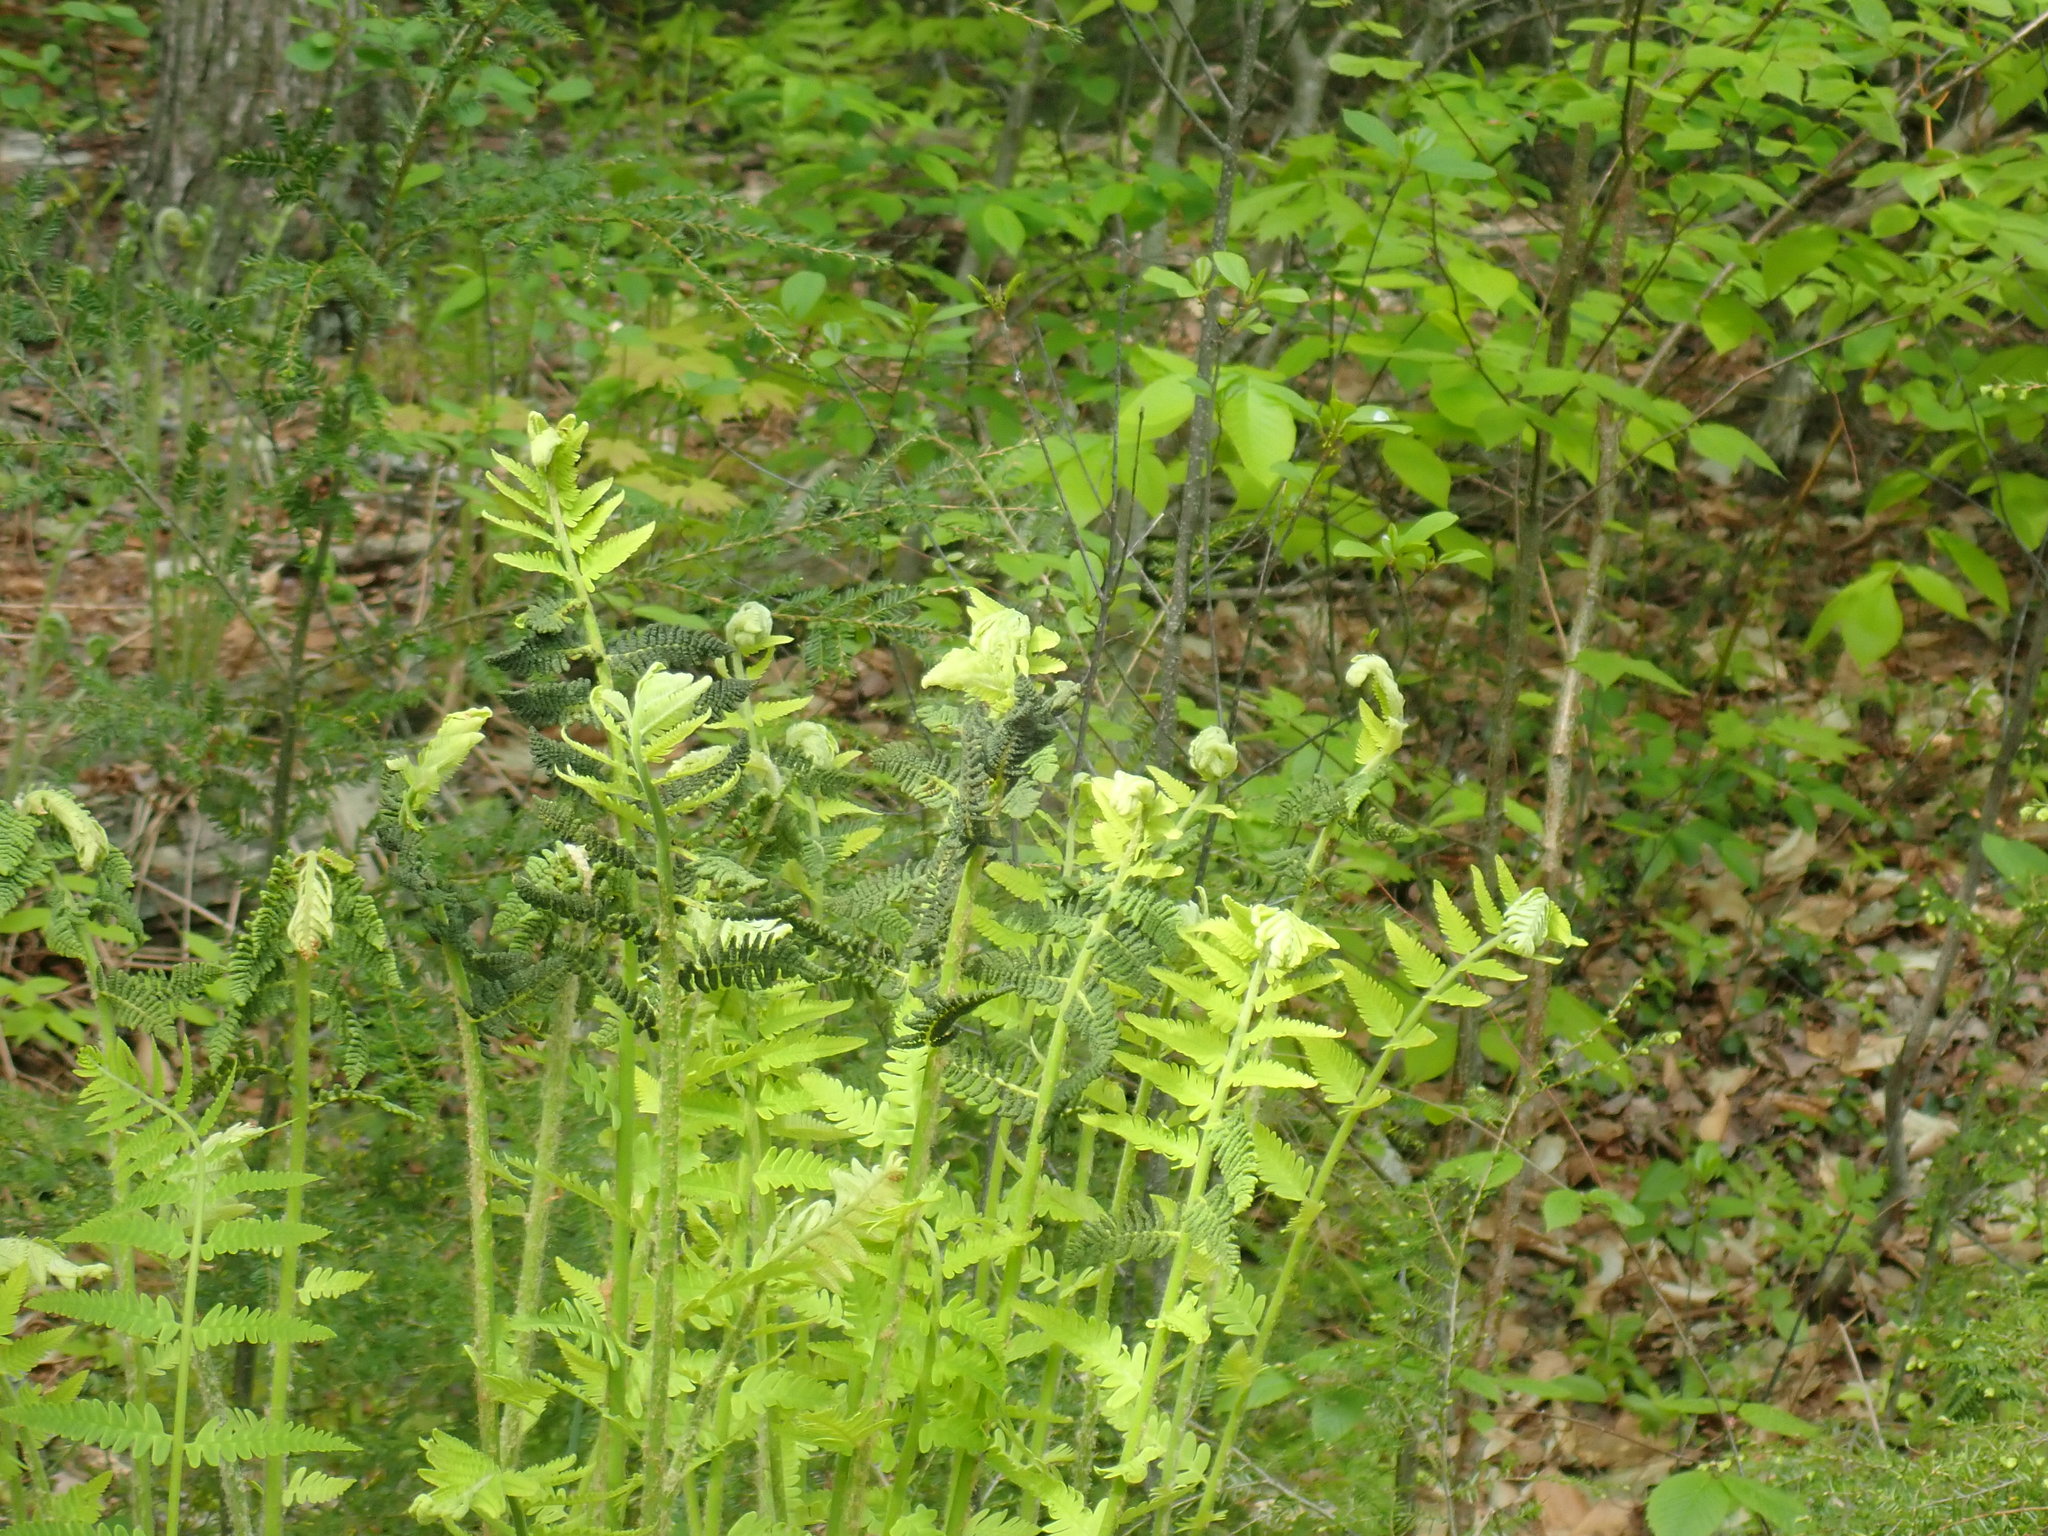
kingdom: Plantae
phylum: Tracheophyta
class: Polypodiopsida
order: Osmundales
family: Osmundaceae
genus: Claytosmunda
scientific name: Claytosmunda claytoniana
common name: Clayton's fern
